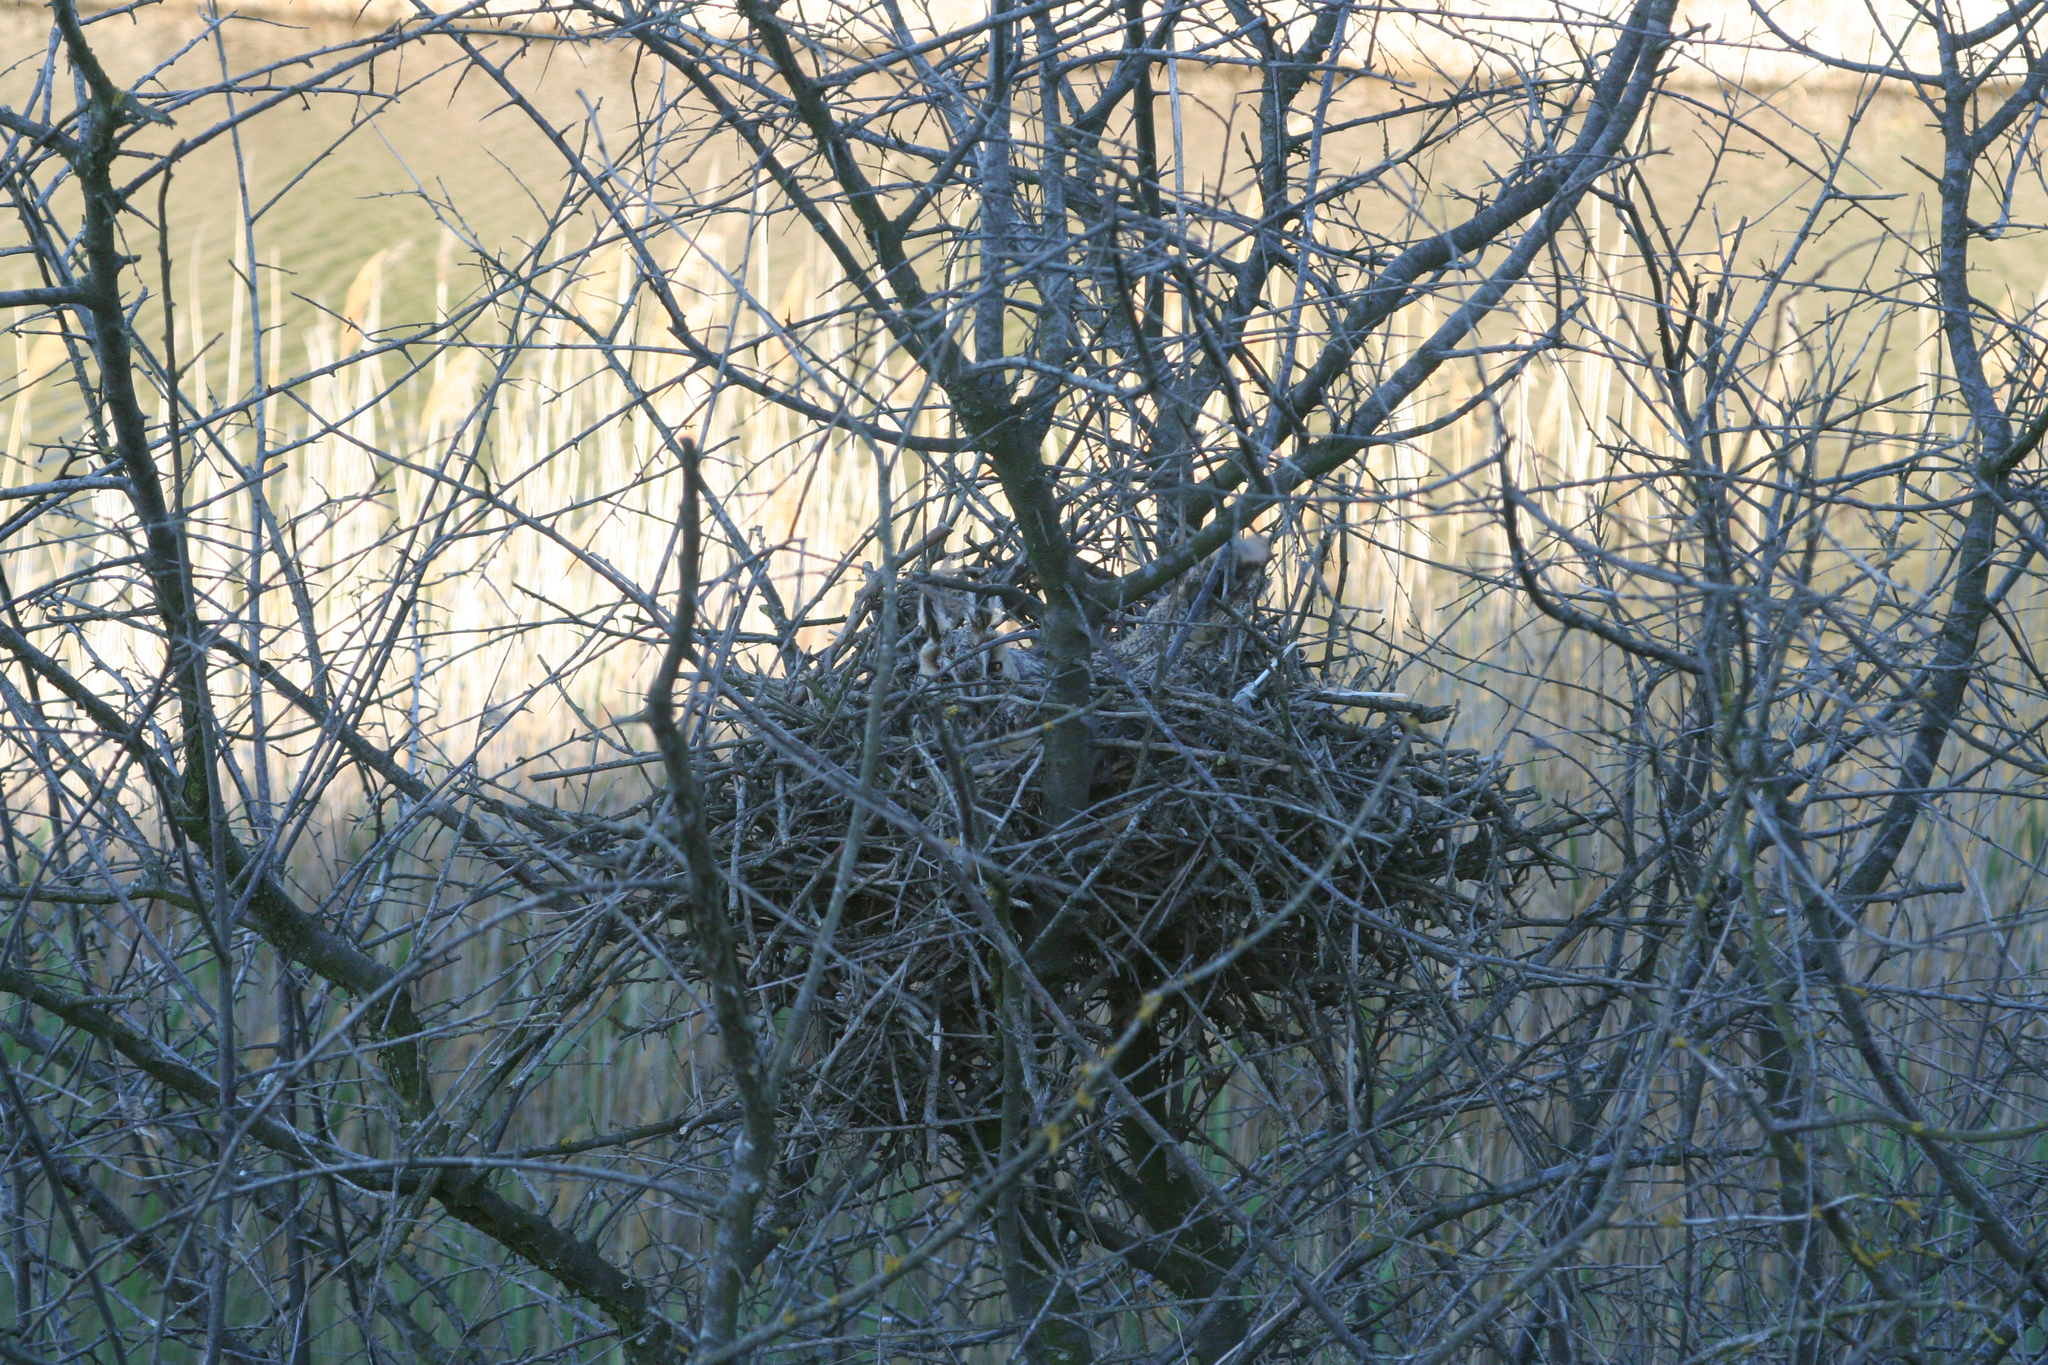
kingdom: Animalia
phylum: Chordata
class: Aves
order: Strigiformes
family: Strigidae
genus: Asio
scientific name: Asio otus
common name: Long-eared owl
